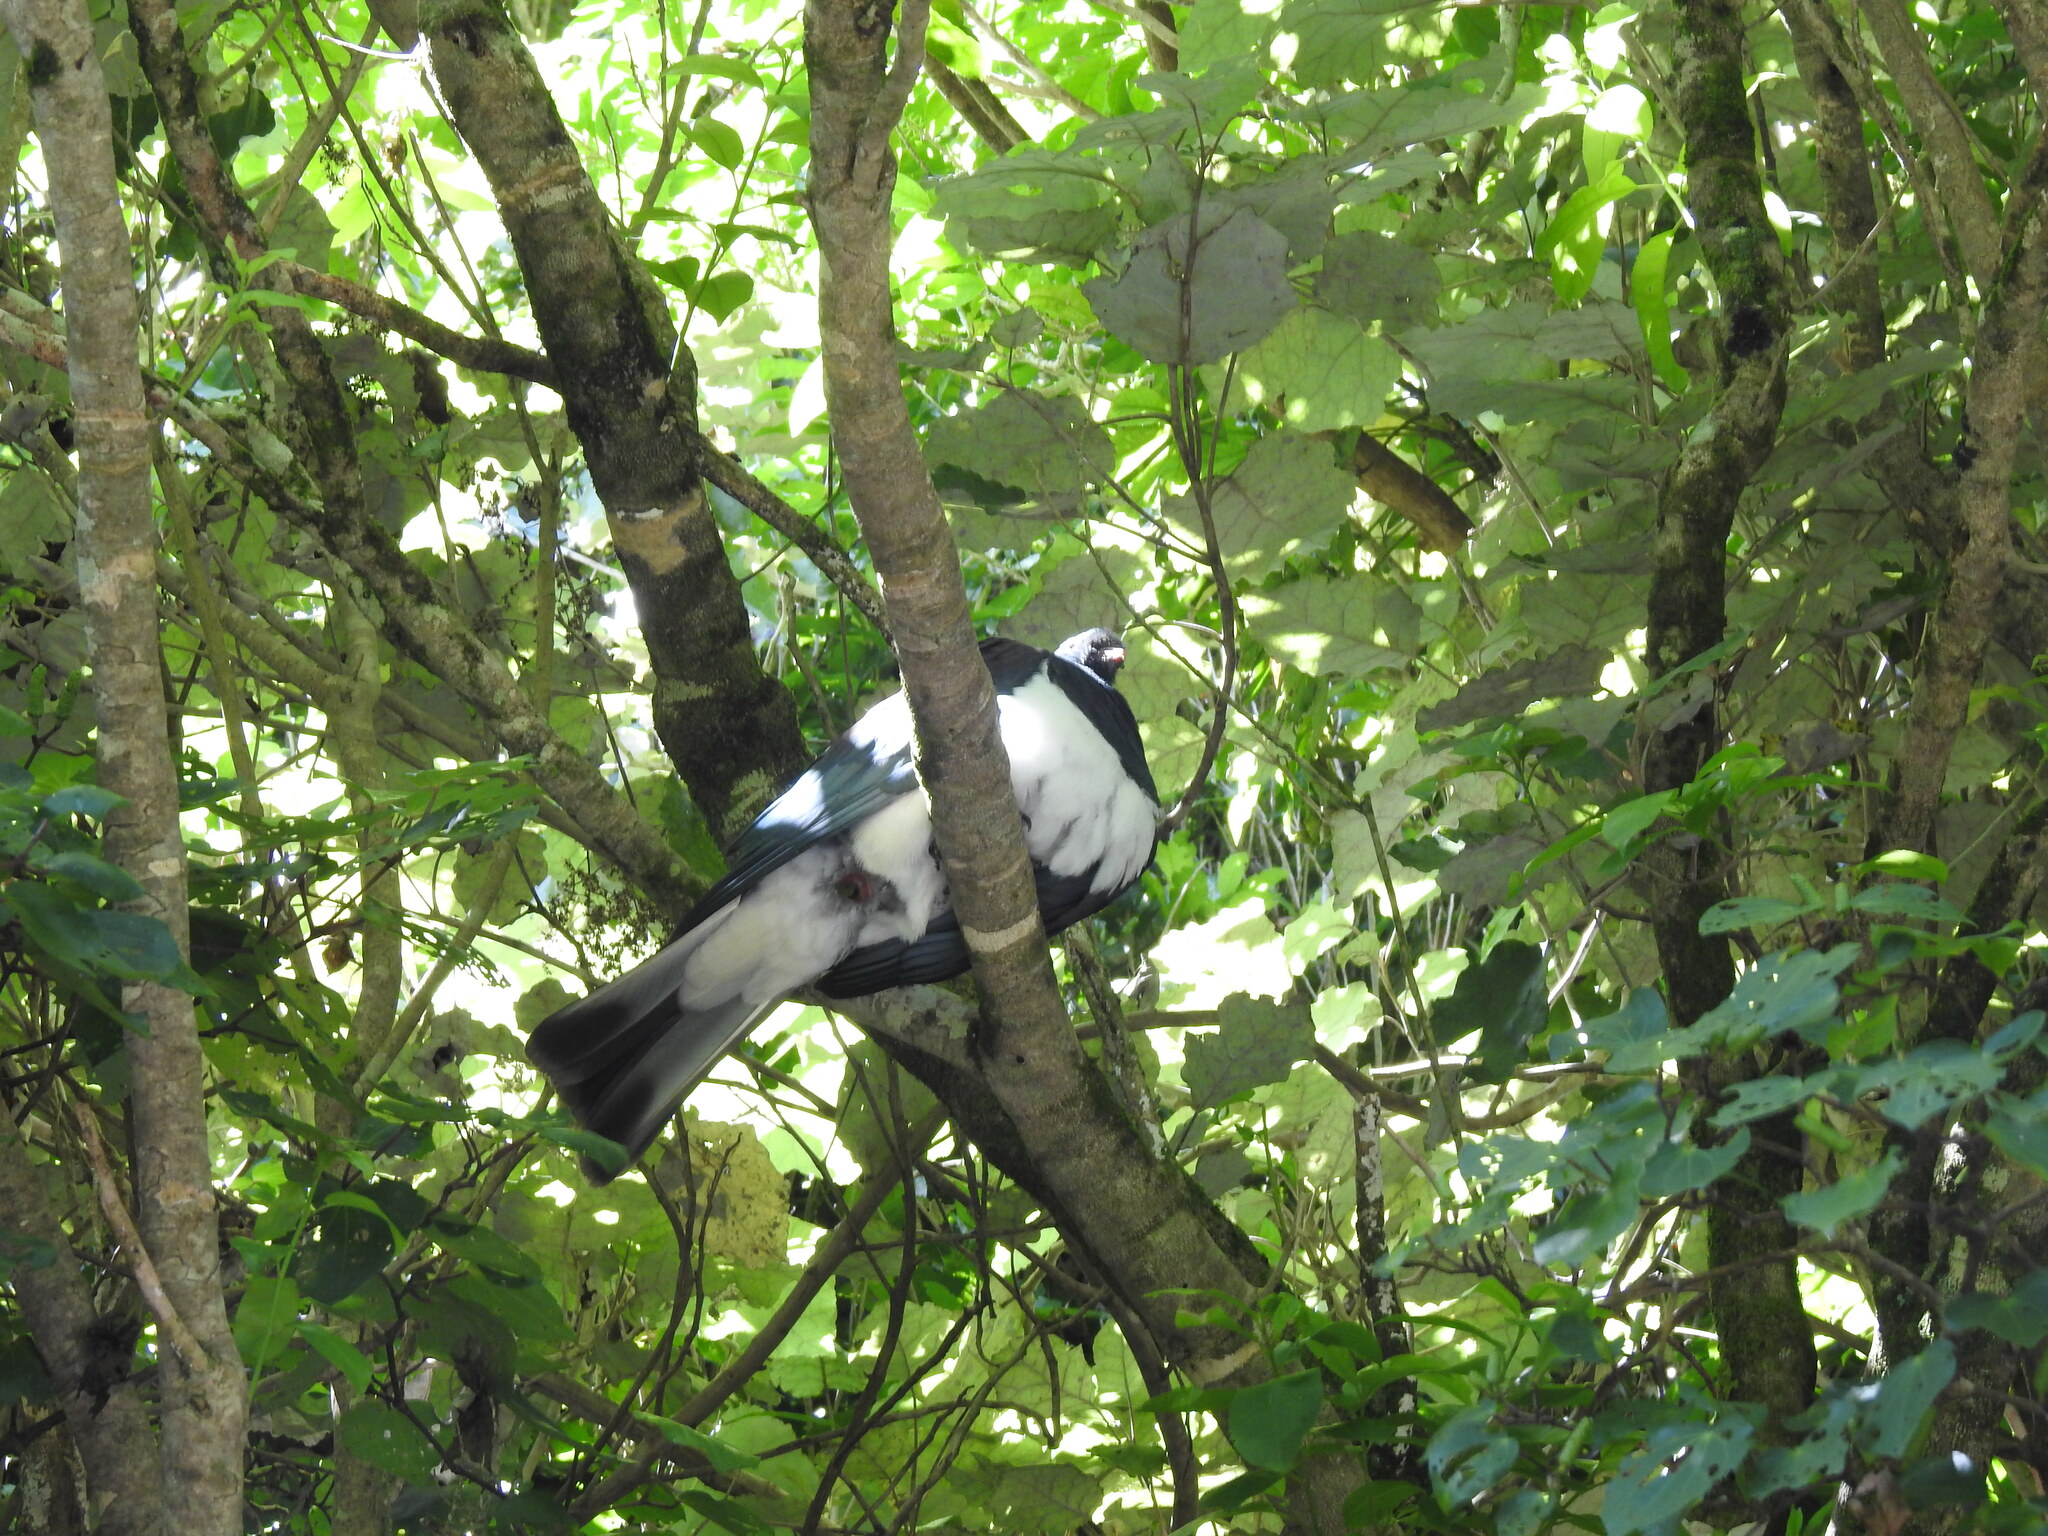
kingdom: Animalia
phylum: Chordata
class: Aves
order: Columbiformes
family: Columbidae
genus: Hemiphaga
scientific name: Hemiphaga novaeseelandiae
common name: New zealand pigeon
